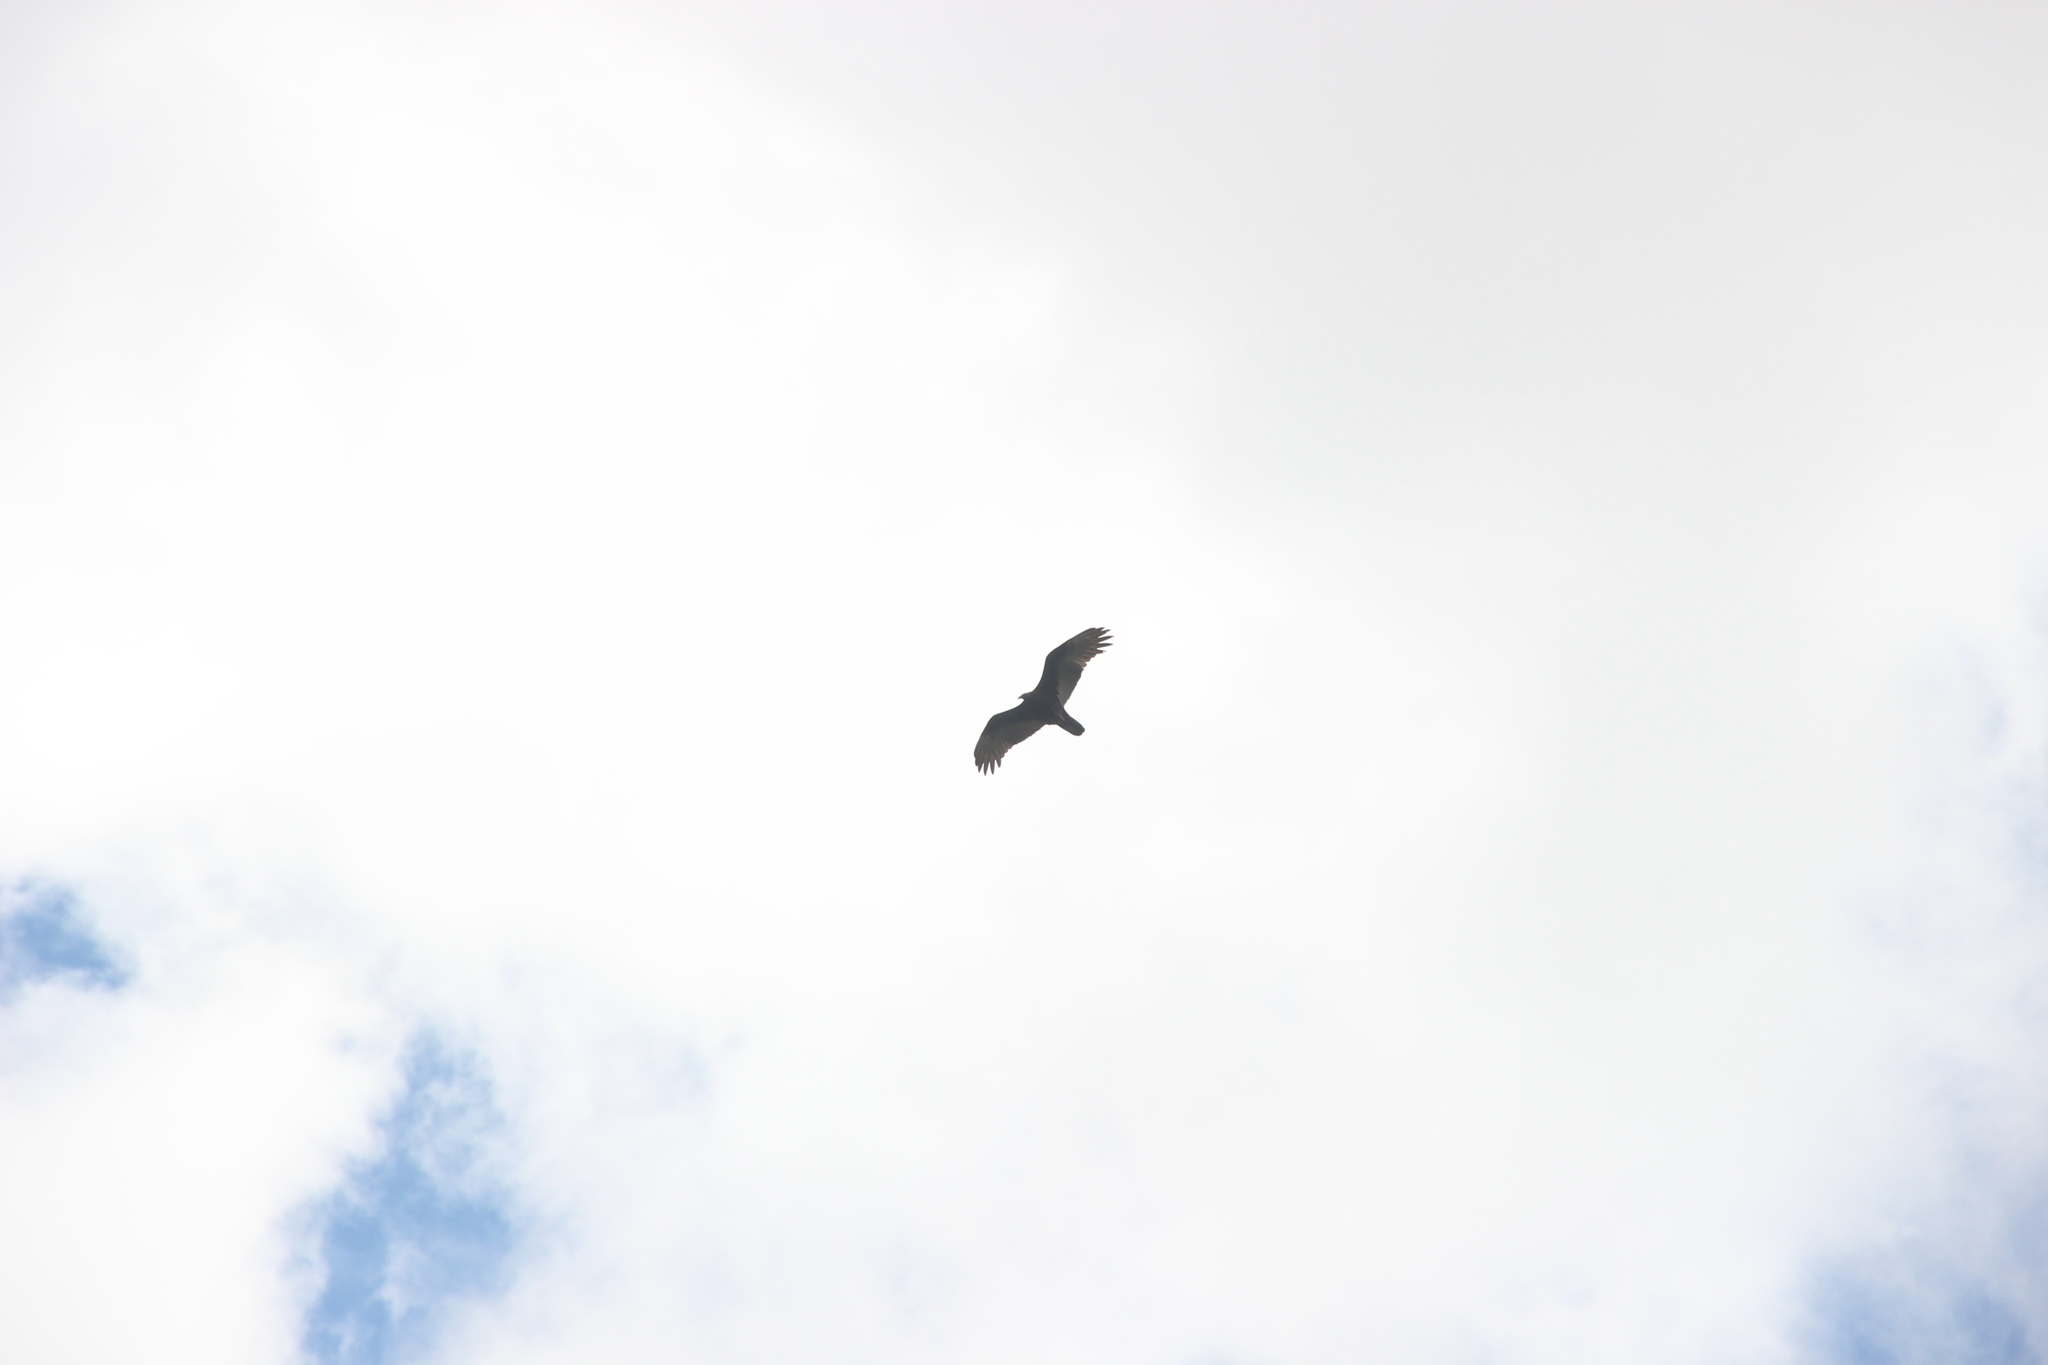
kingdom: Animalia
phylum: Chordata
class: Aves
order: Accipitriformes
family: Cathartidae
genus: Cathartes
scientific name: Cathartes aura
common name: Turkey vulture
